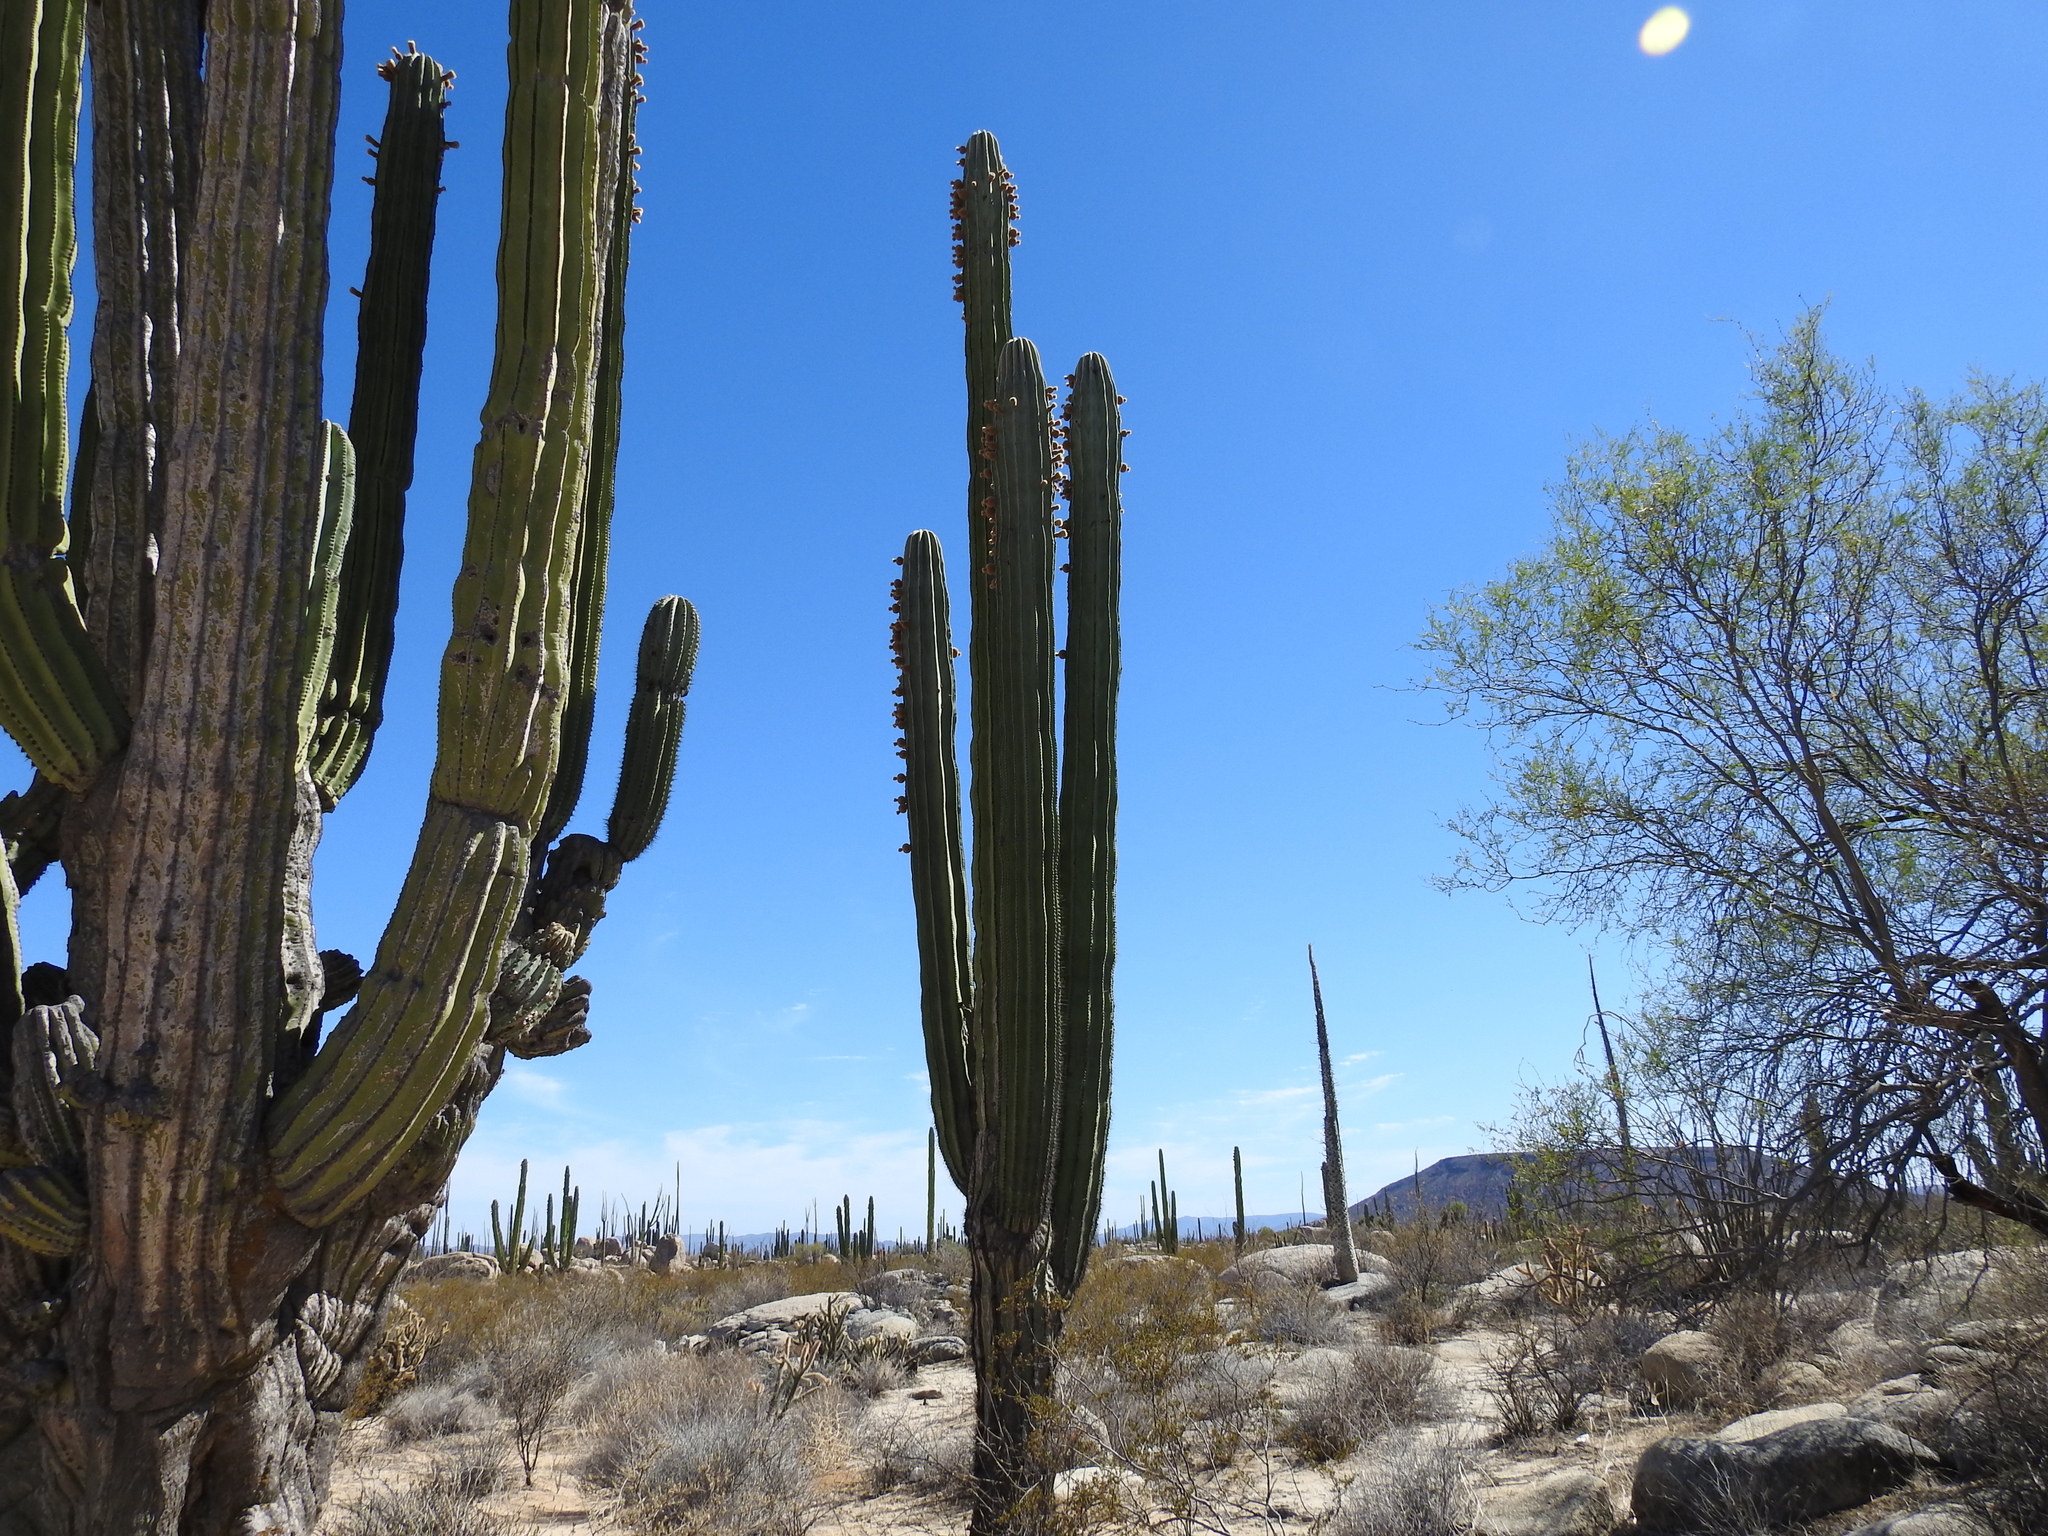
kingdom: Plantae
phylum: Tracheophyta
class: Magnoliopsida
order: Caryophyllales
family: Cactaceae
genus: Pachycereus
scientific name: Pachycereus pringlei
